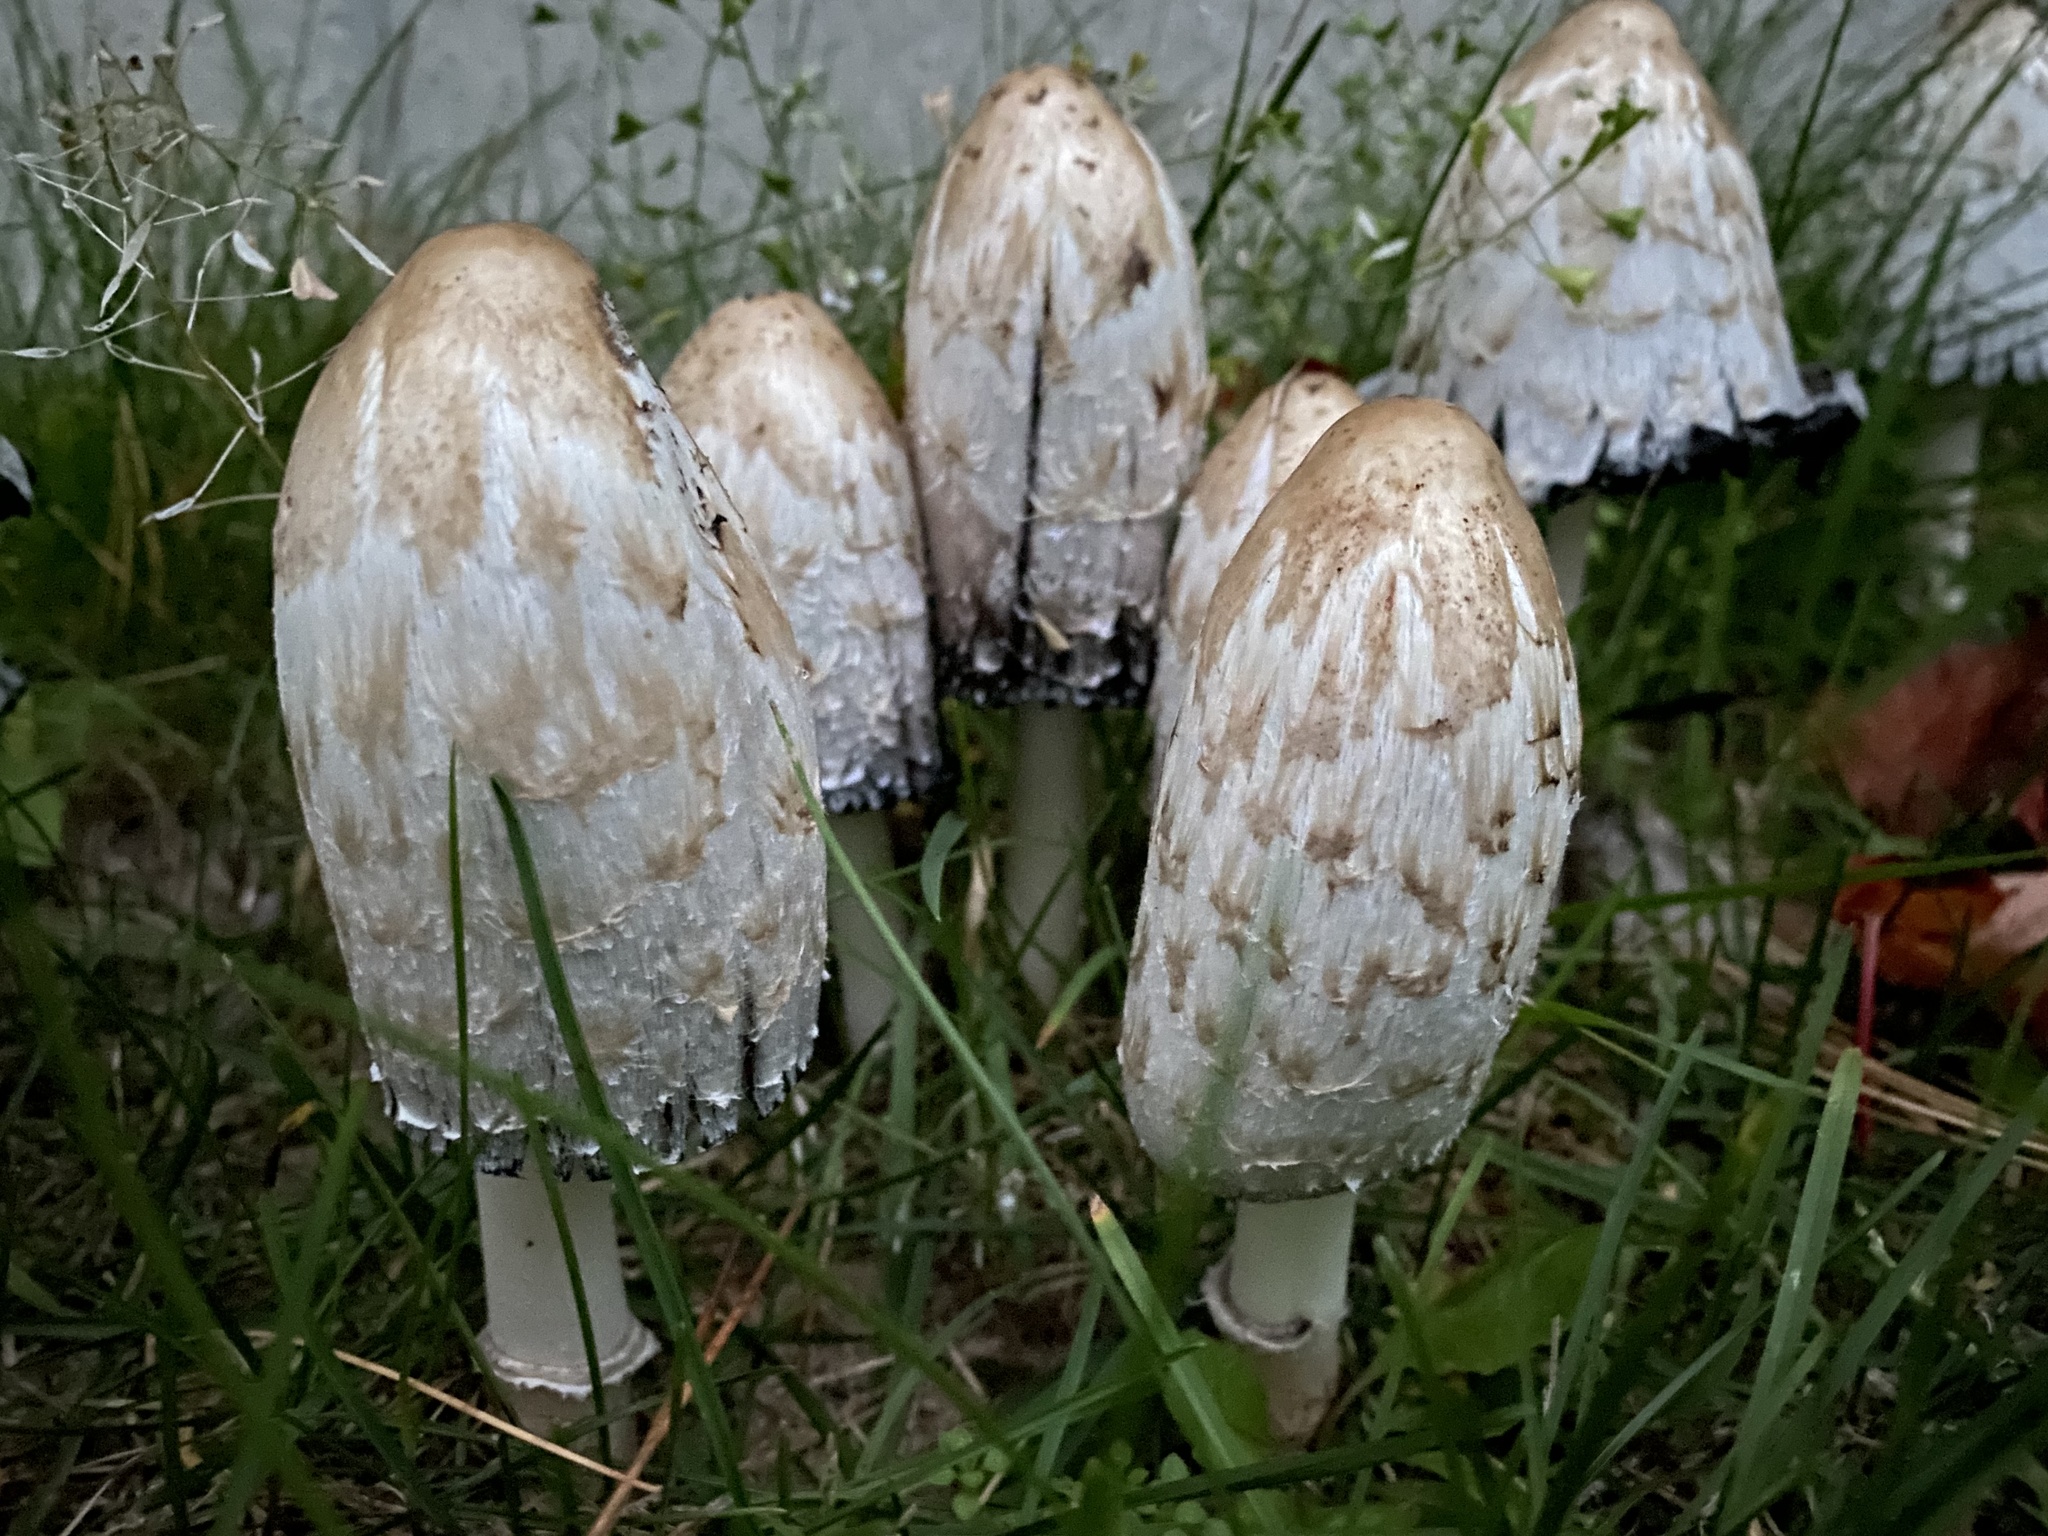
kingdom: Fungi
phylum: Basidiomycota
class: Agaricomycetes
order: Agaricales
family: Agaricaceae
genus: Coprinus
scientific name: Coprinus comatus
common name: Lawyer's wig
